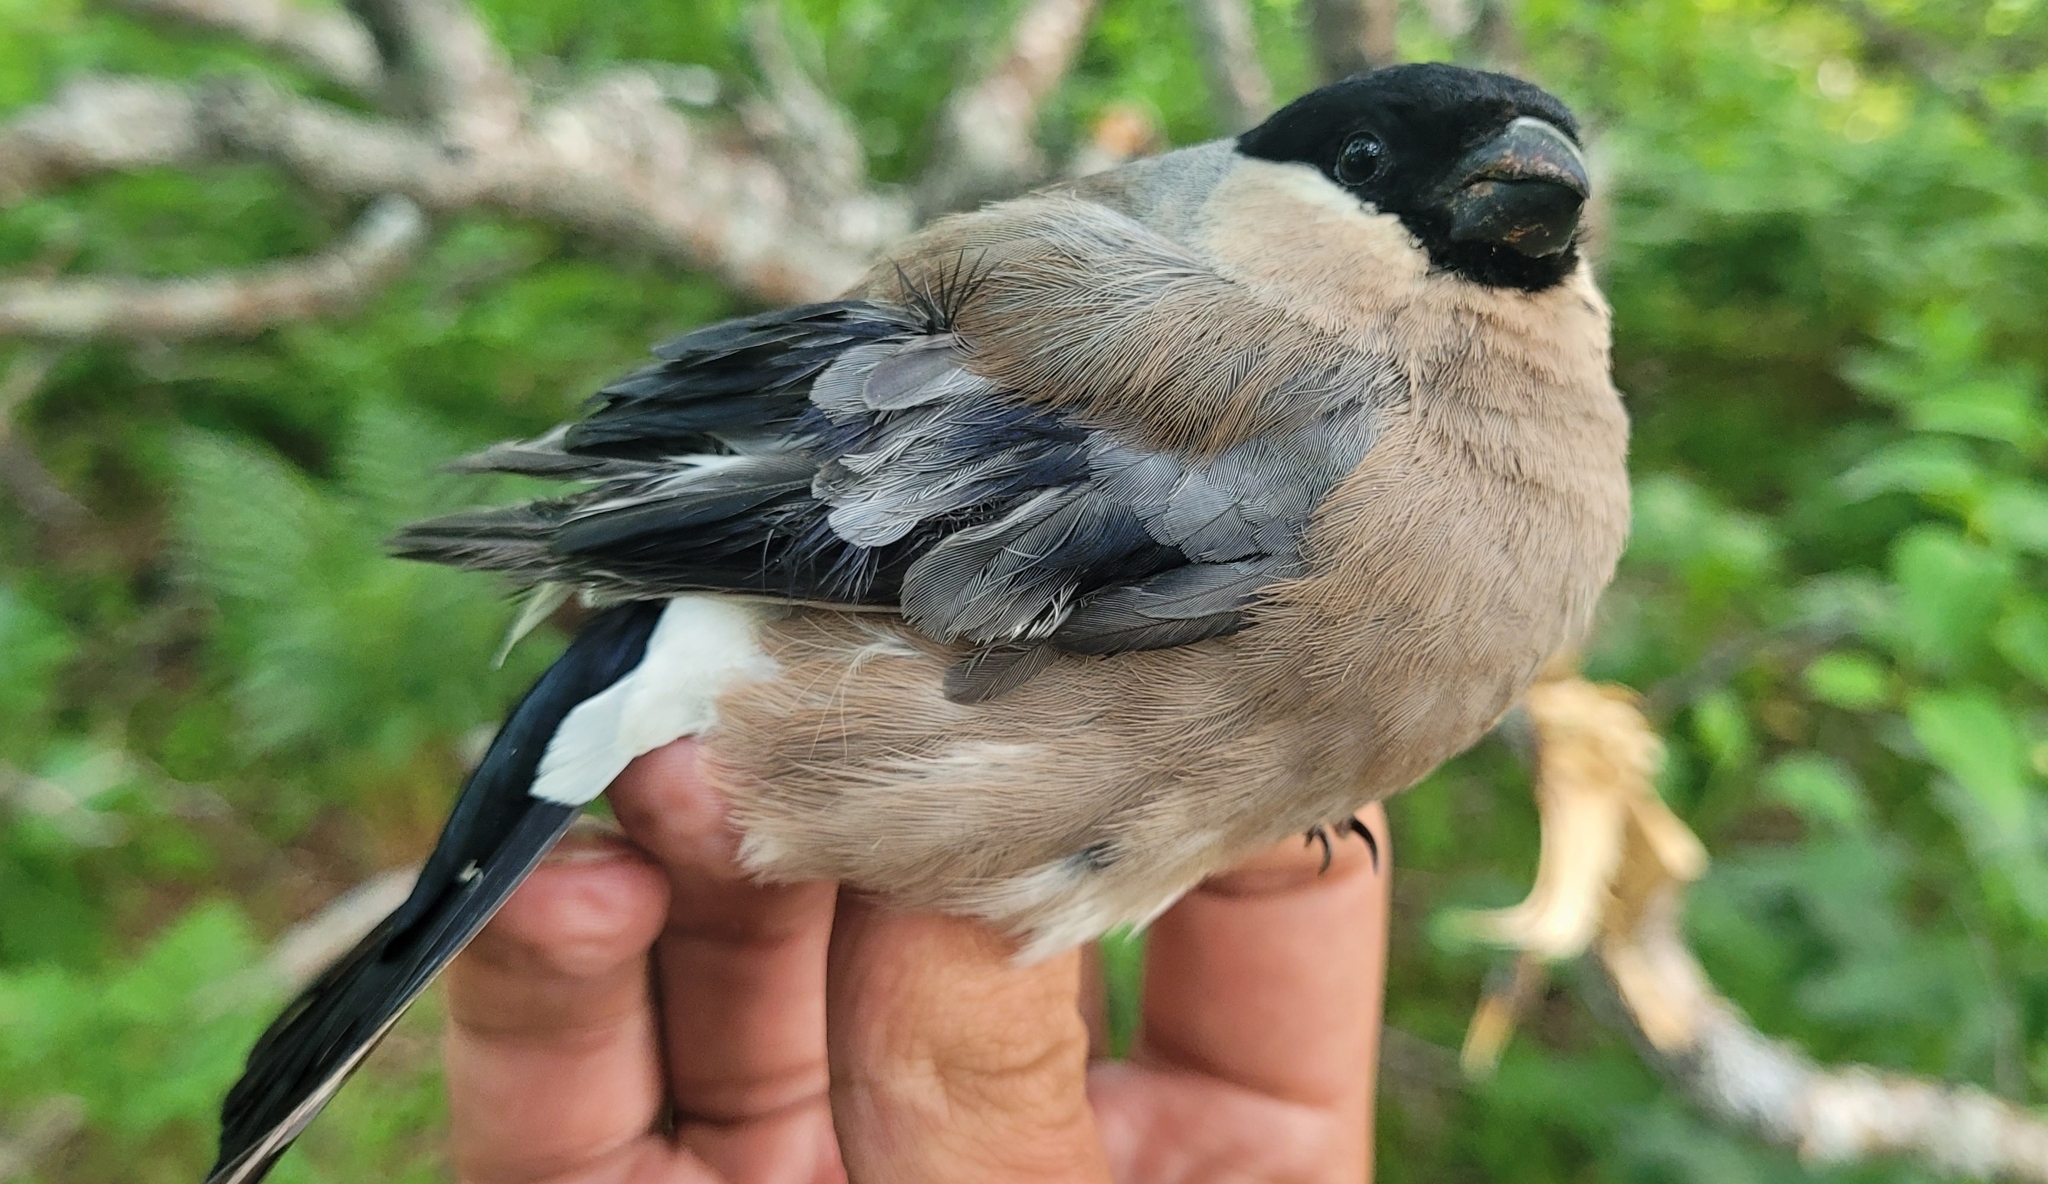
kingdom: Animalia
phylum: Chordata
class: Aves
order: Passeriformes
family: Fringillidae
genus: Pyrrhula
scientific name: Pyrrhula pyrrhula
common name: Eurasian bullfinch
